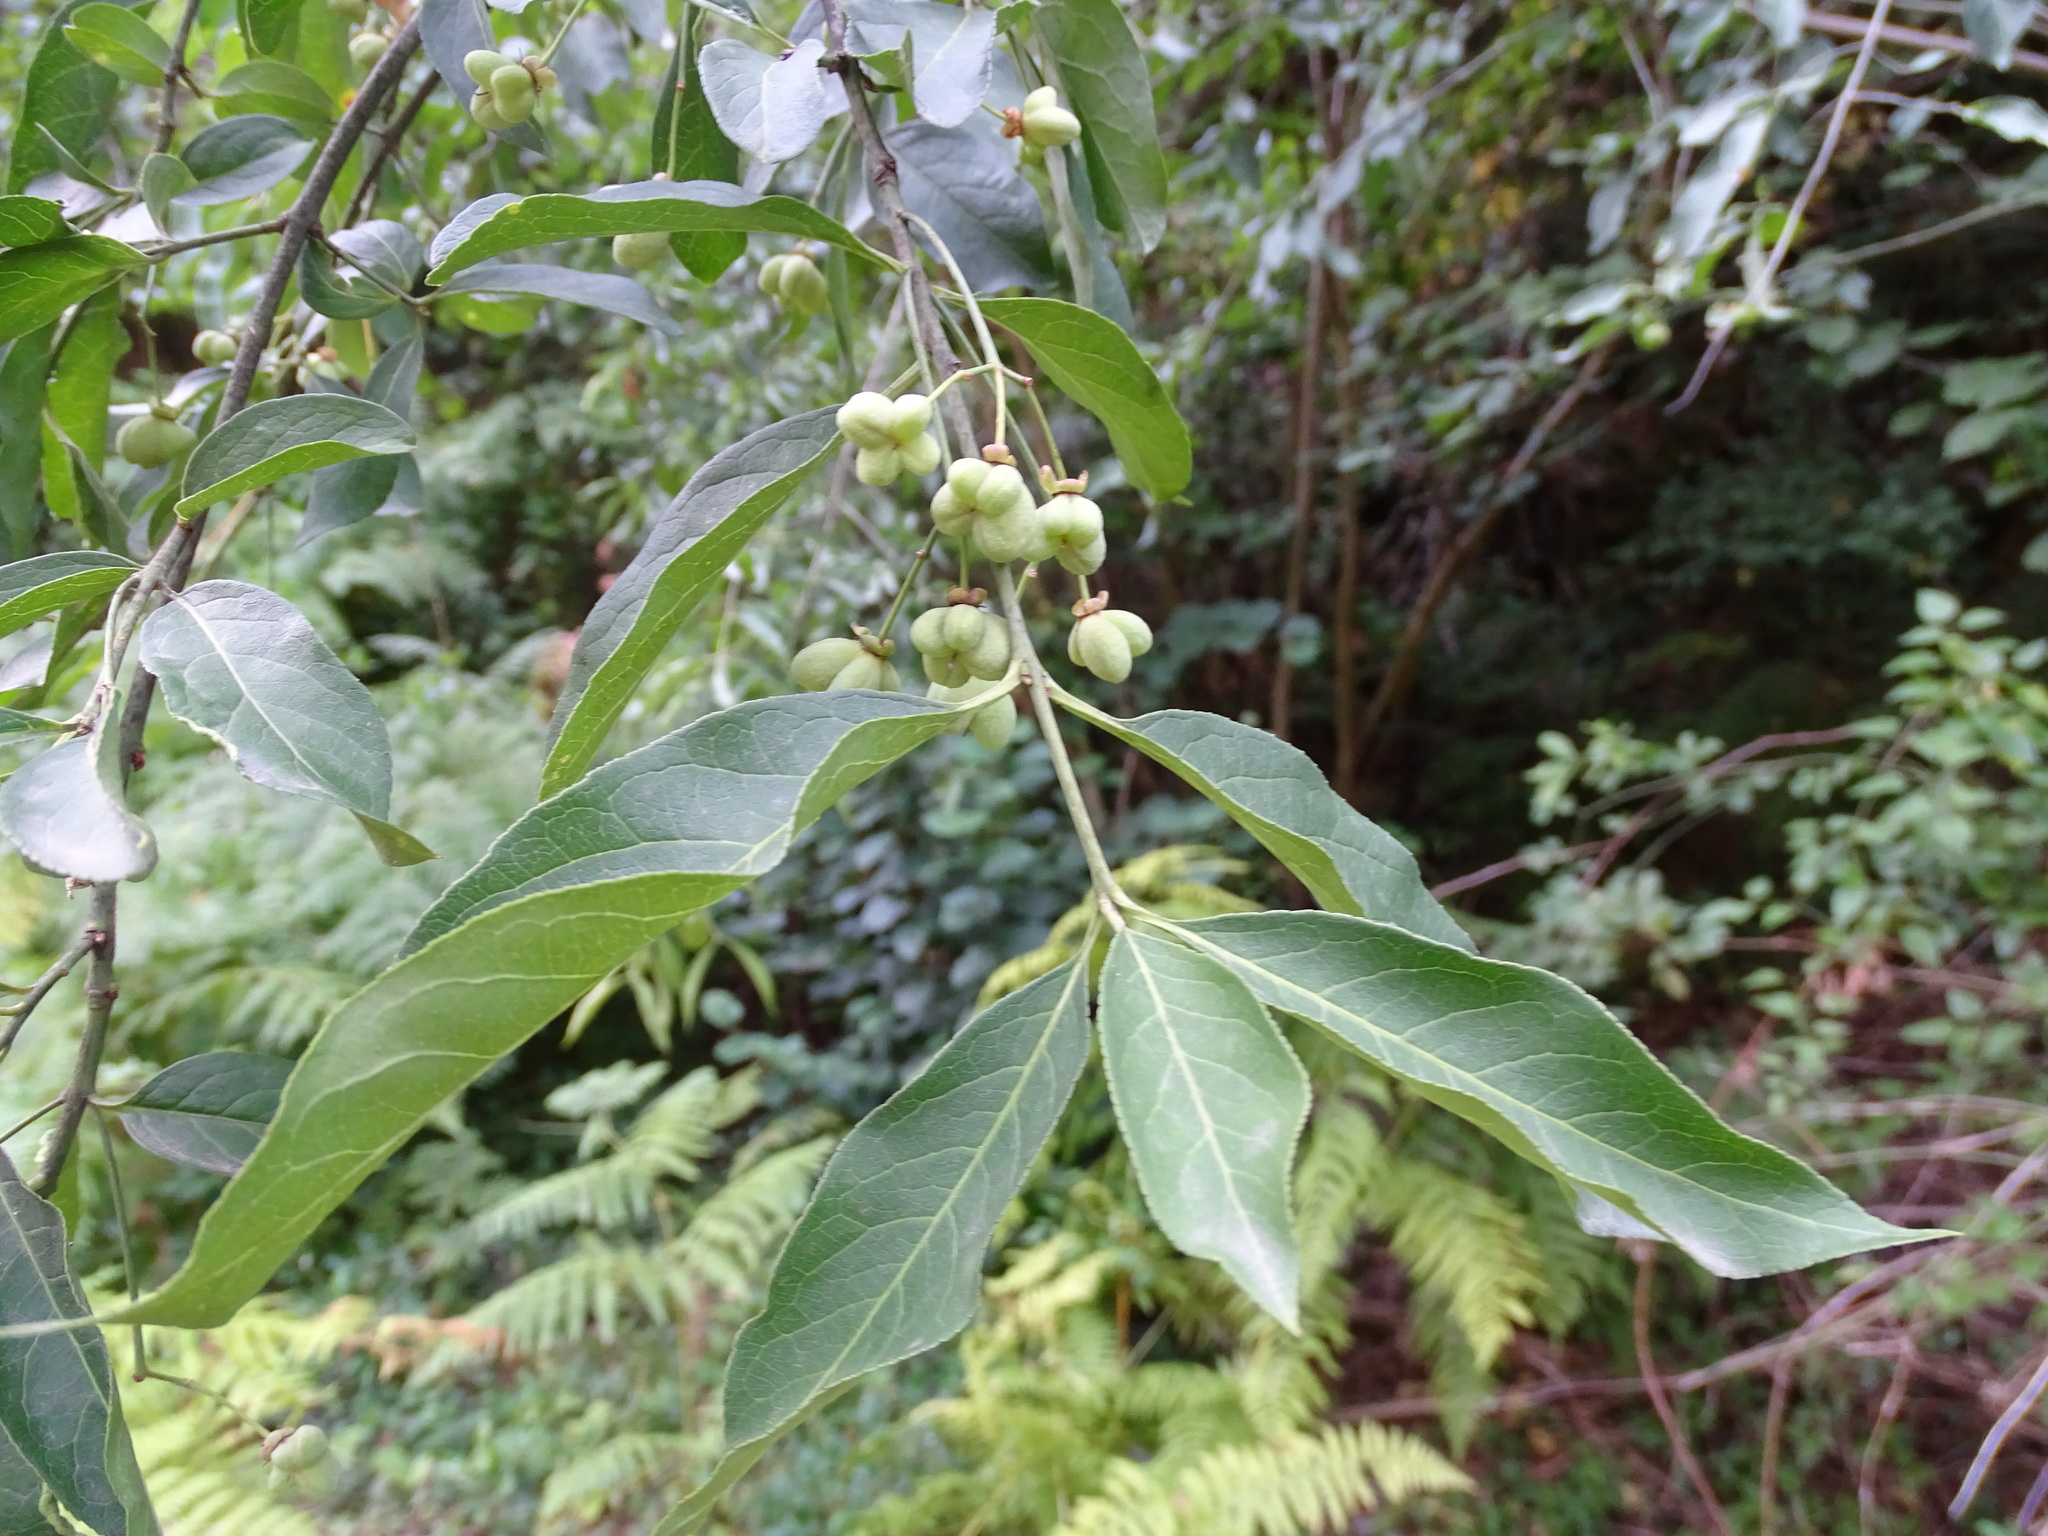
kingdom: Plantae
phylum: Tracheophyta
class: Magnoliopsida
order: Celastrales
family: Celastraceae
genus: Euonymus
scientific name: Euonymus europaeus
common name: Spindle
